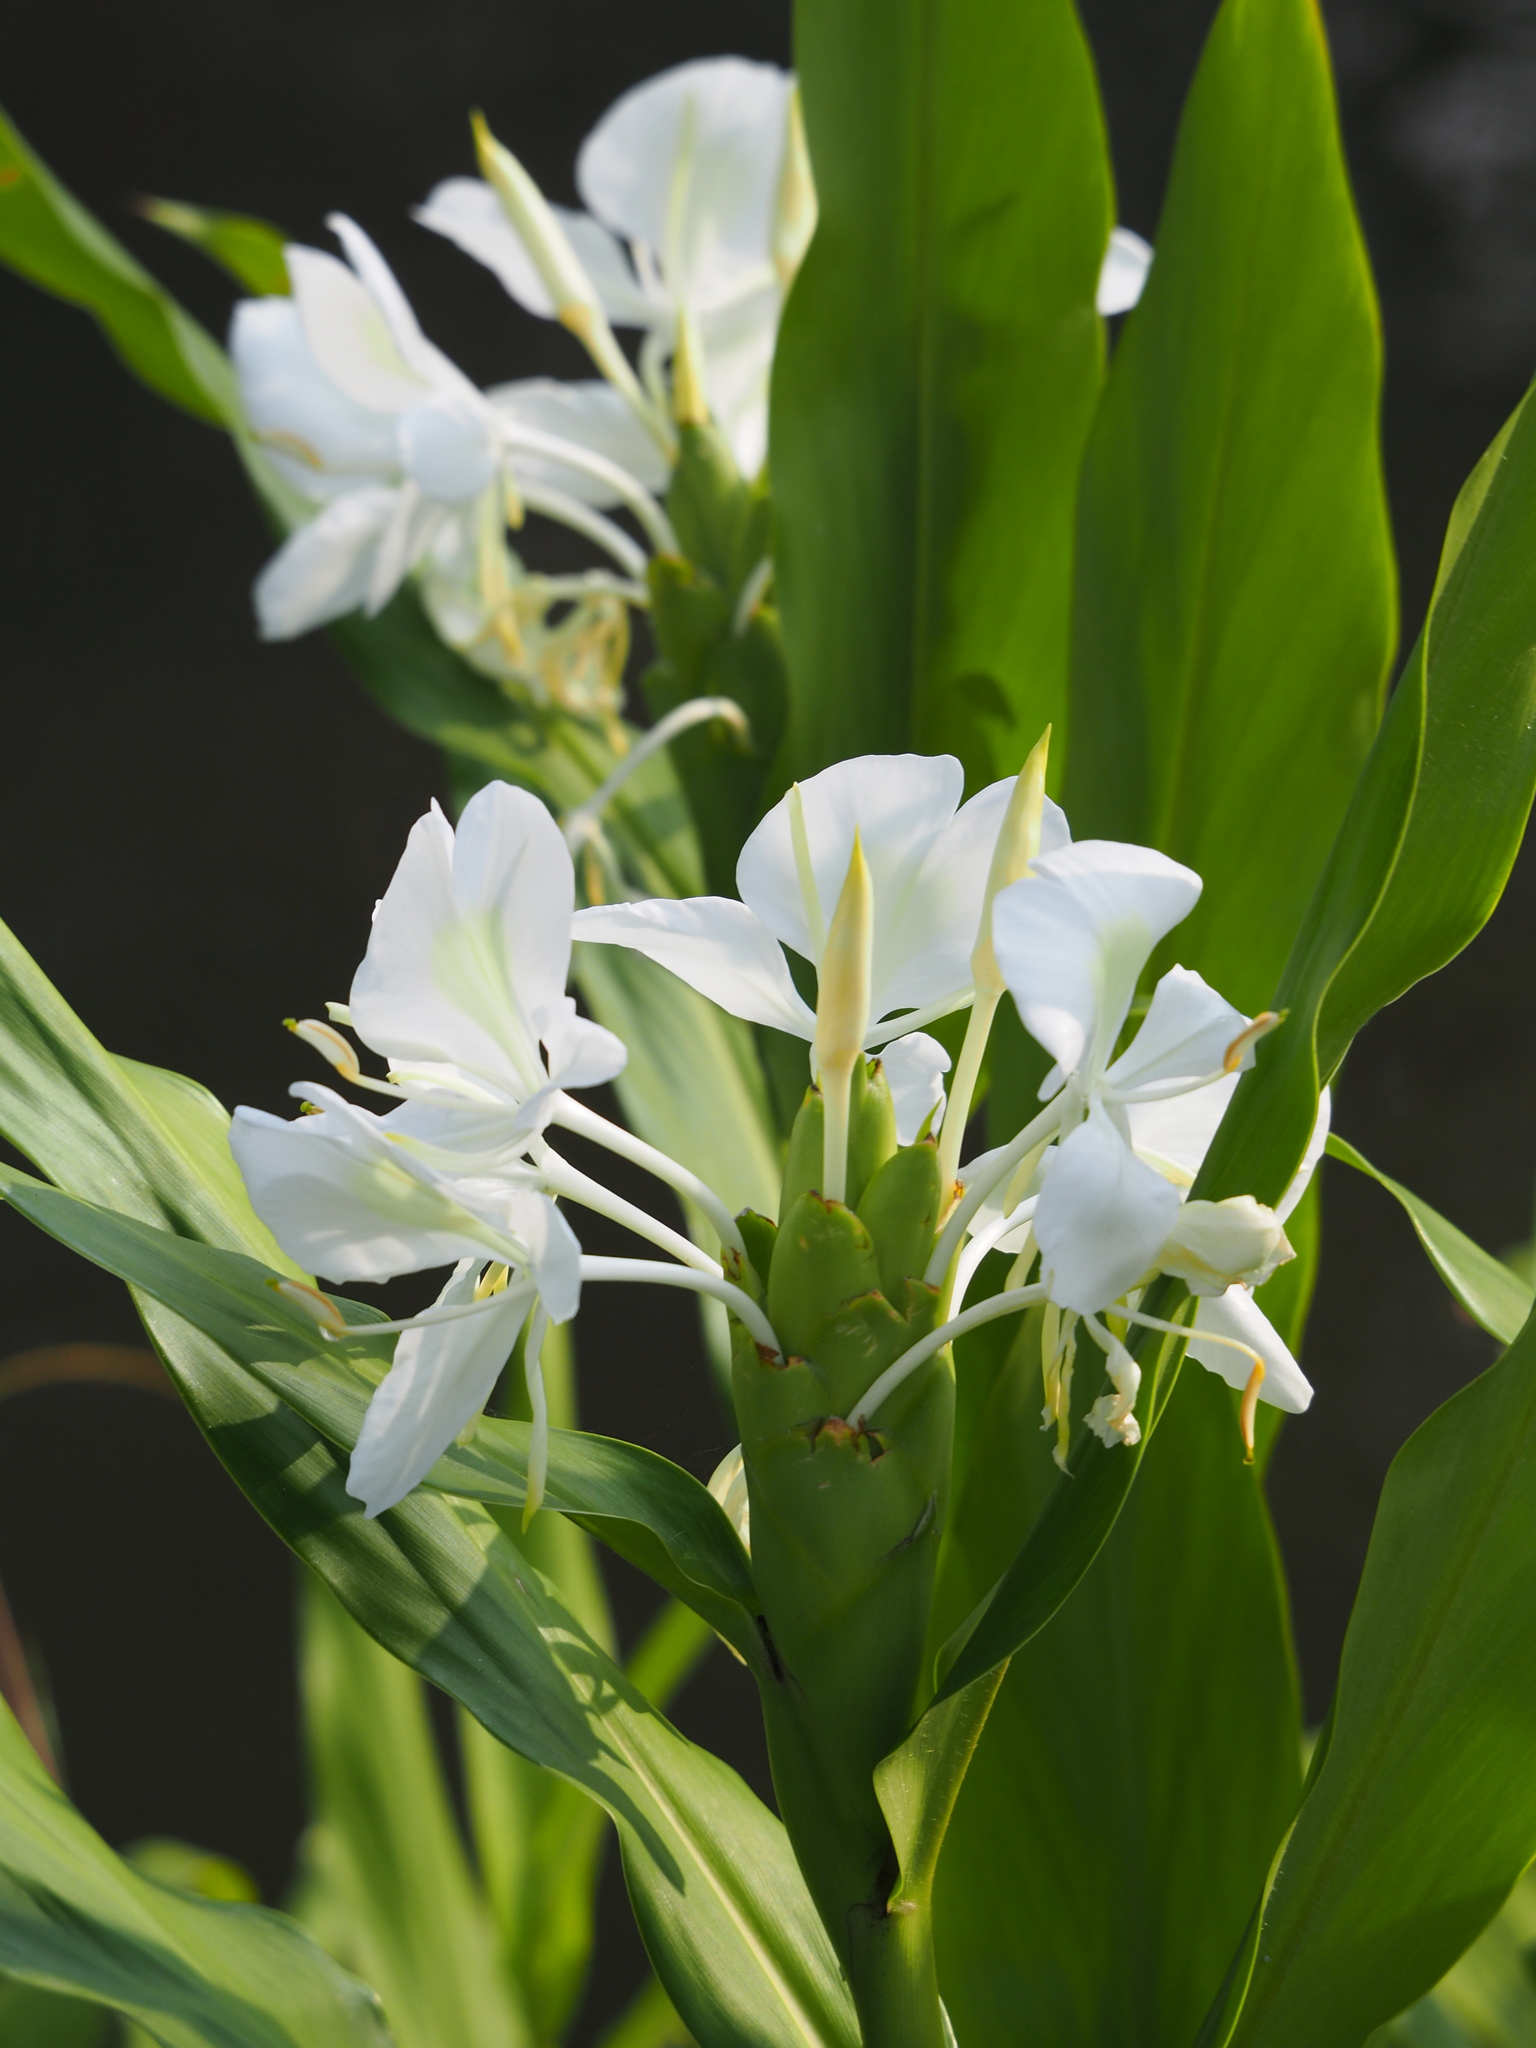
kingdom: Plantae
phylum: Tracheophyta
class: Liliopsida
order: Zingiberales
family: Zingiberaceae
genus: Hedychium
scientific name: Hedychium coronarium
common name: White garland-lily
